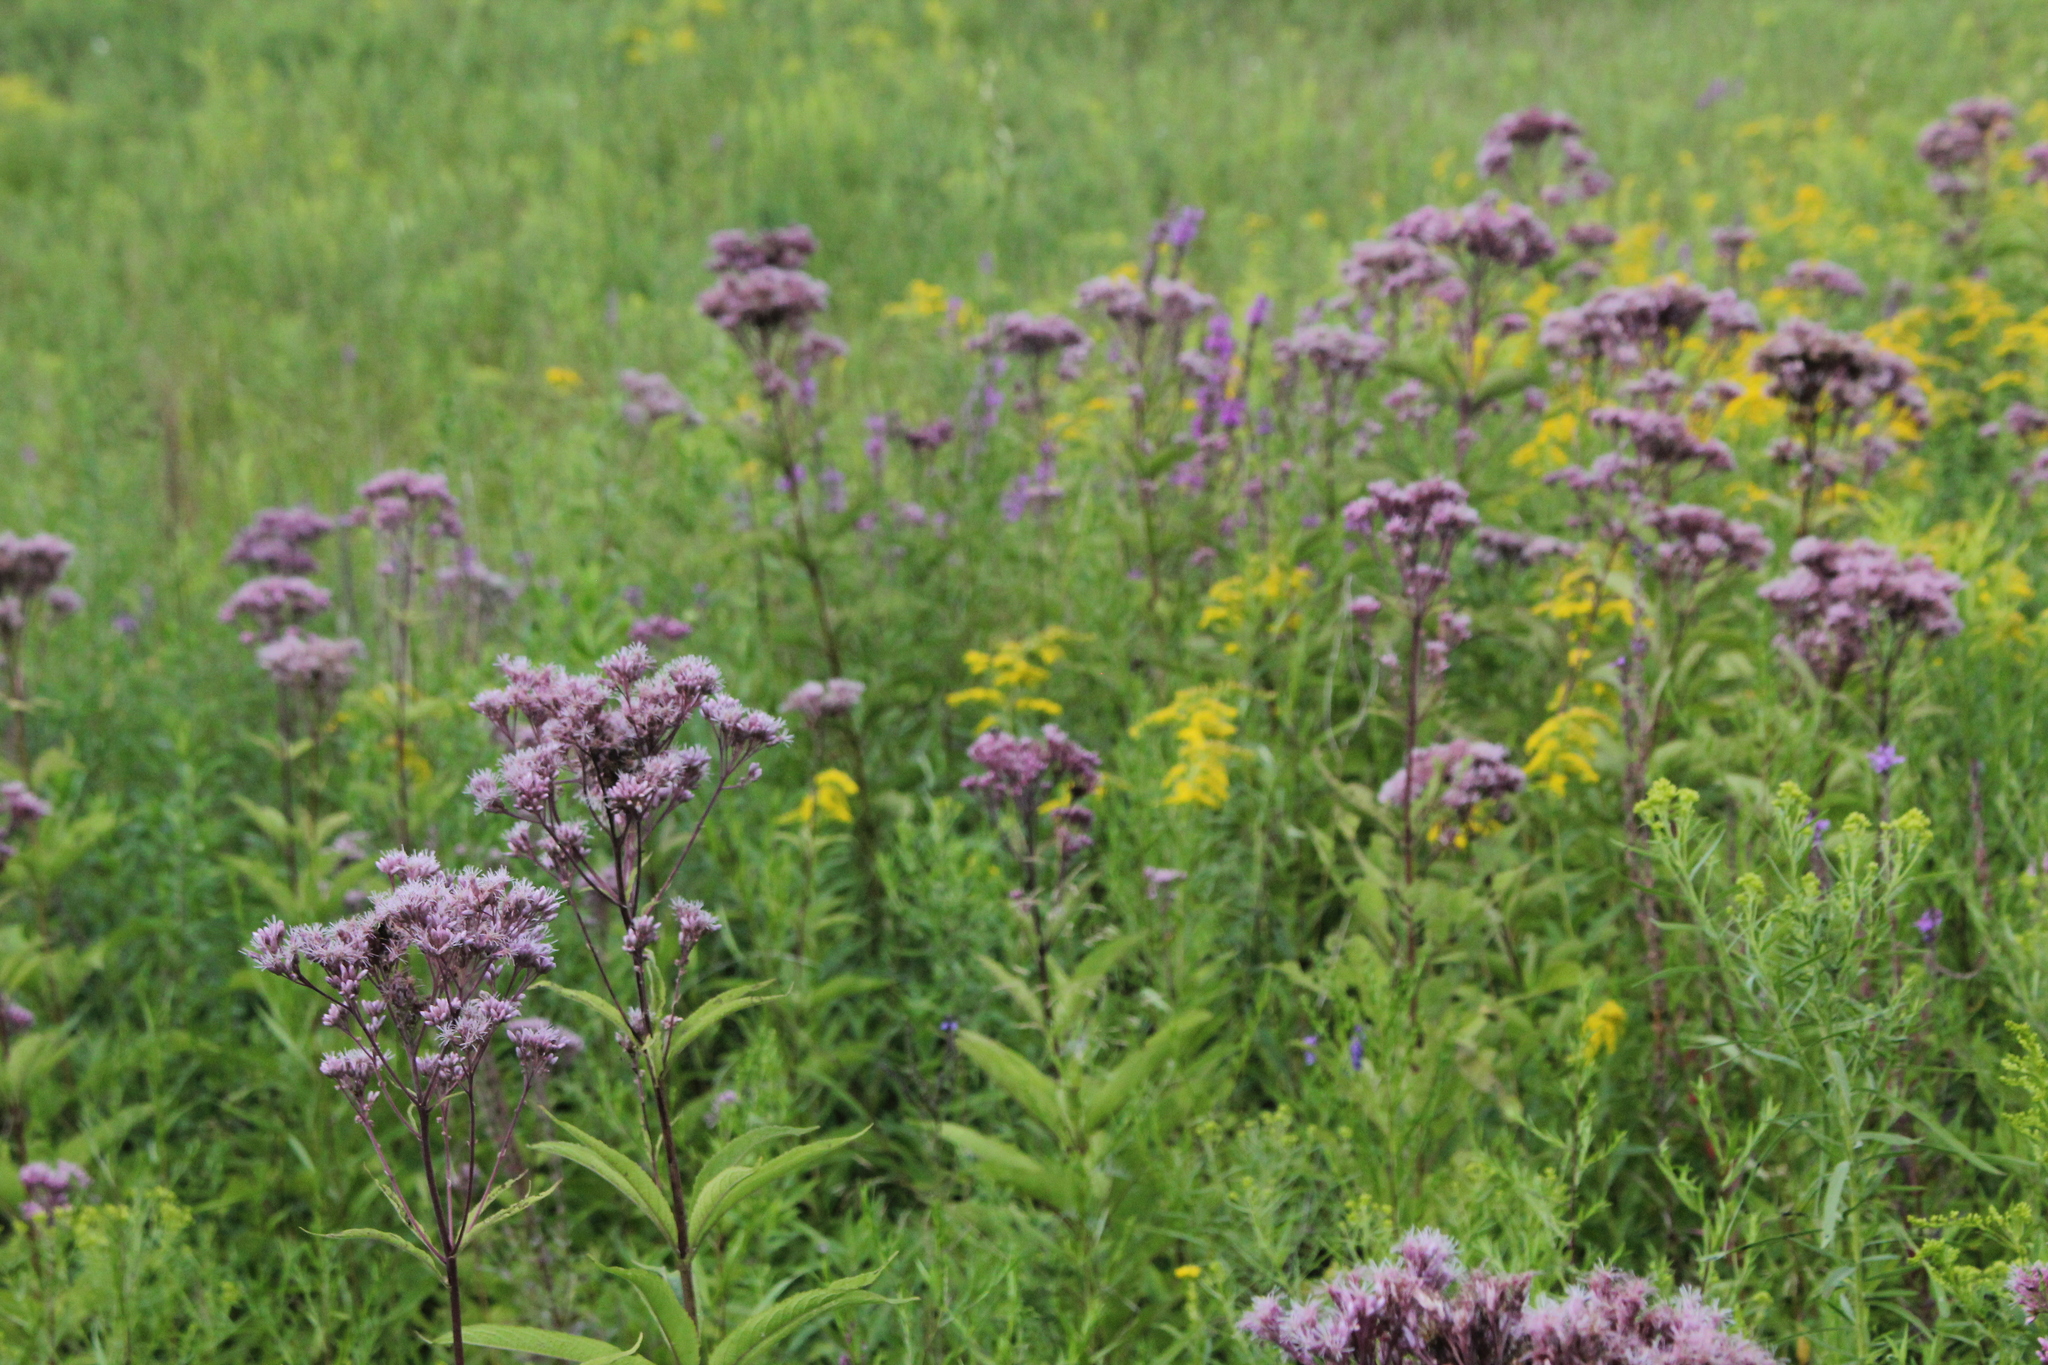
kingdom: Plantae
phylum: Tracheophyta
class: Magnoliopsida
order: Asterales
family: Asteraceae
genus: Eutrochium
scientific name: Eutrochium maculatum
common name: Spotted joe pye weed
